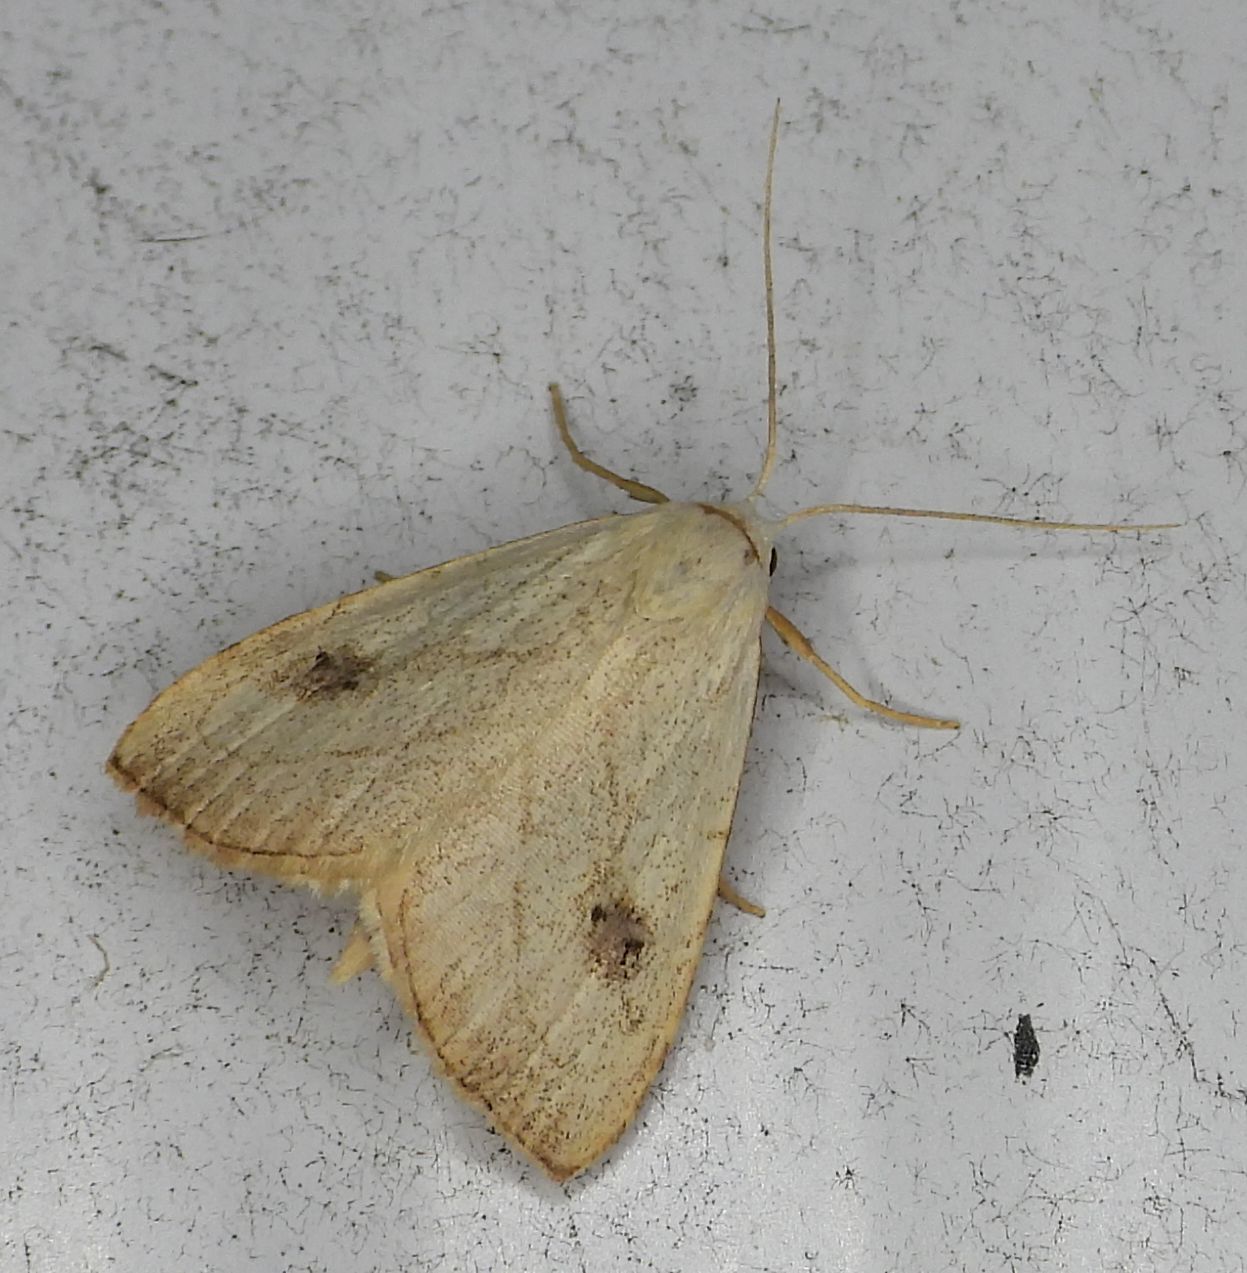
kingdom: Animalia
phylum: Arthropoda
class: Insecta
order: Lepidoptera
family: Erebidae
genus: Rivula
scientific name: Rivula propinqualis
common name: Spotted grass moth
